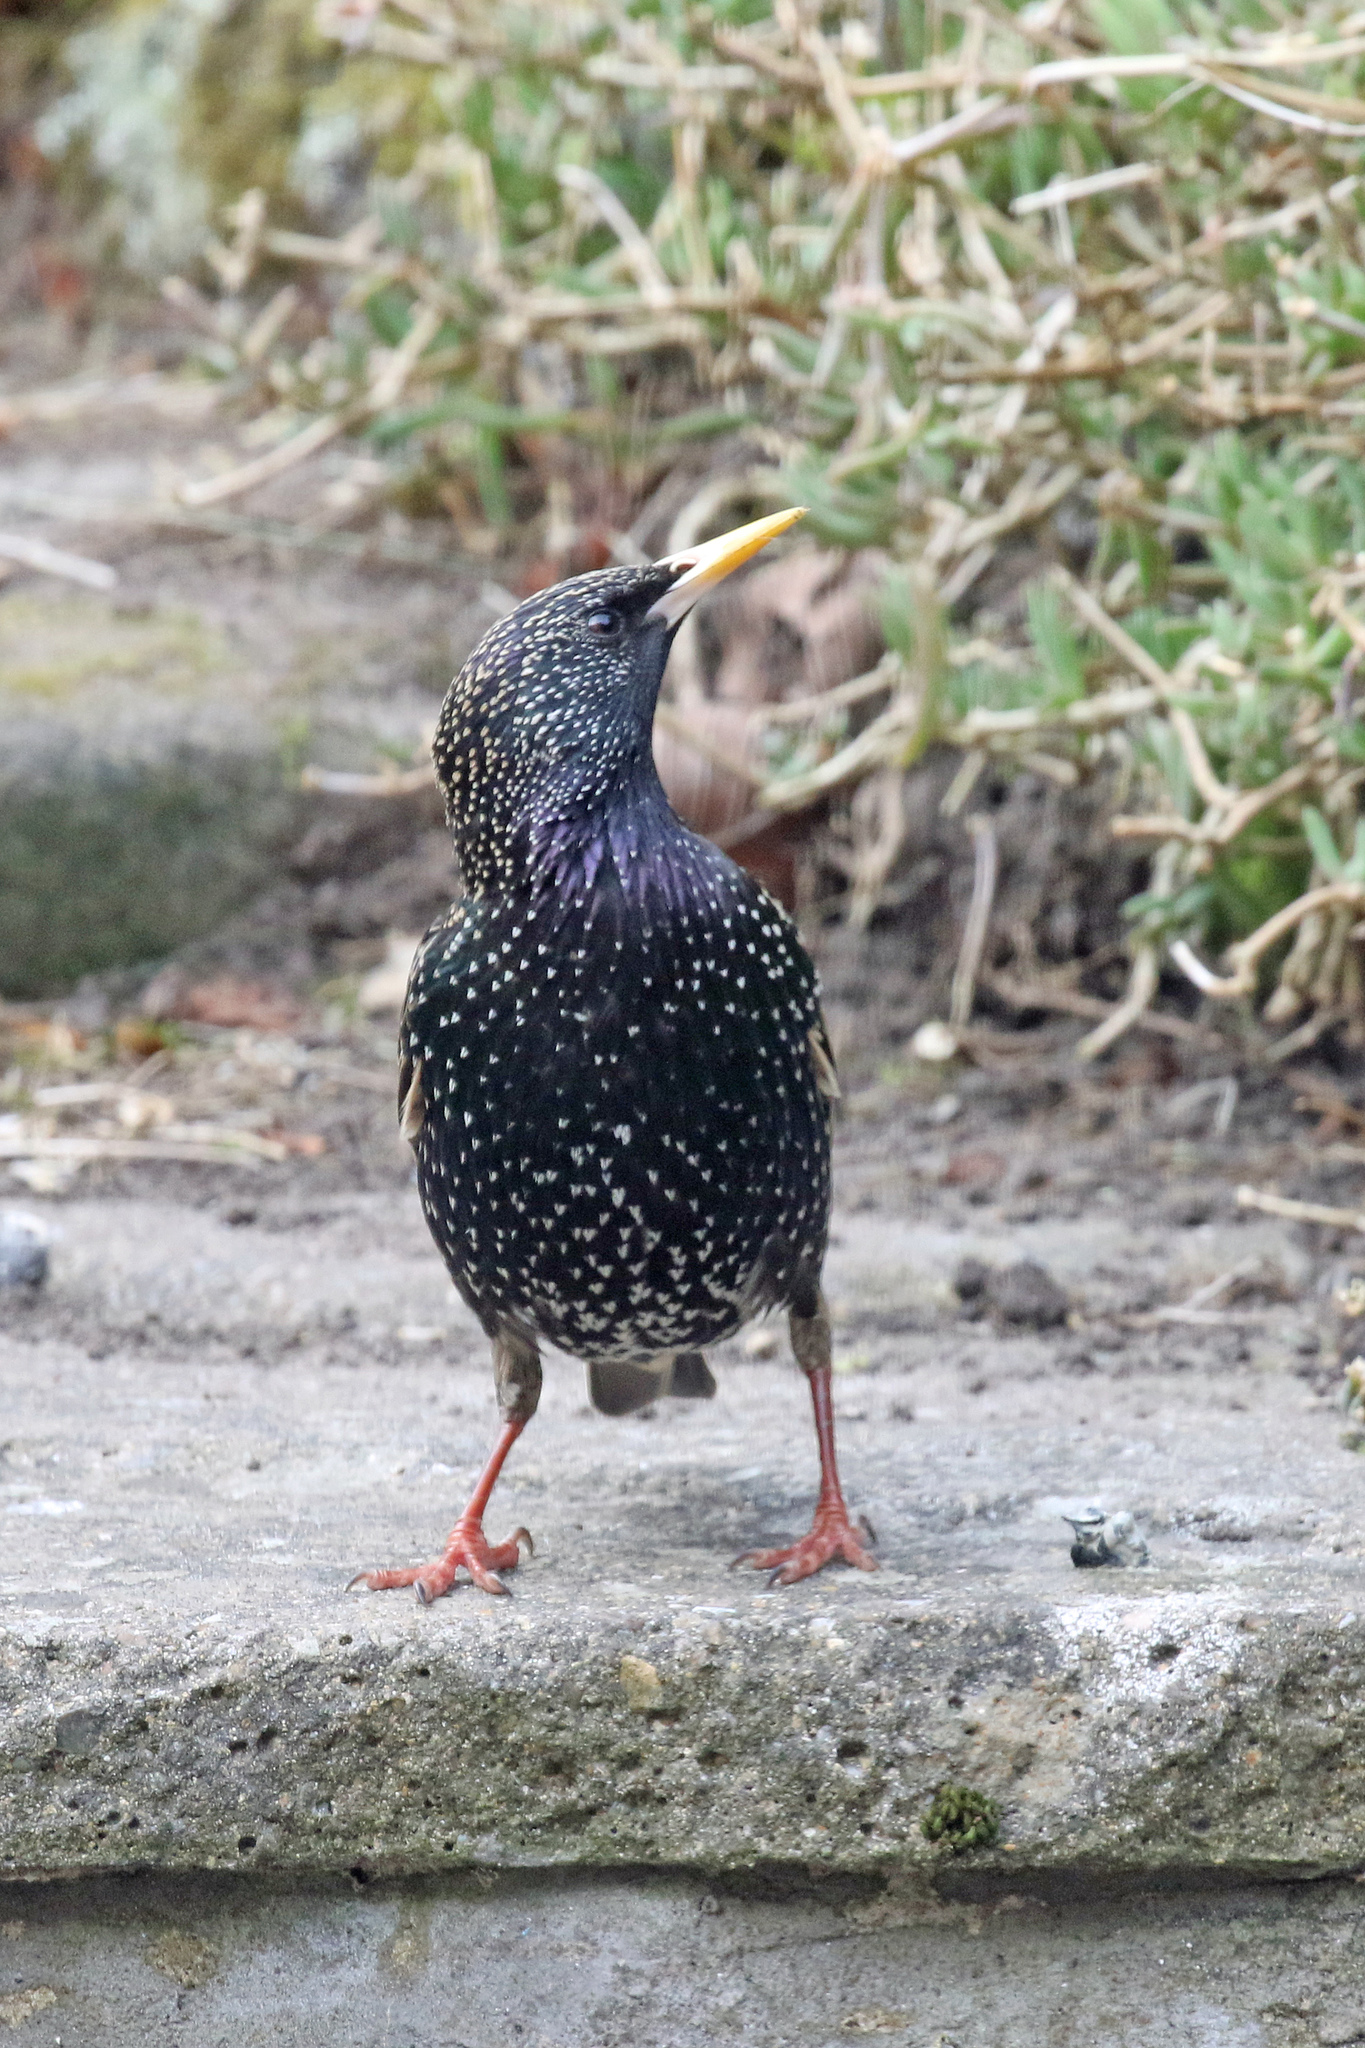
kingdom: Animalia
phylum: Chordata
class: Aves
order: Passeriformes
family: Sturnidae
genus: Sturnus
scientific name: Sturnus vulgaris
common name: Common starling
